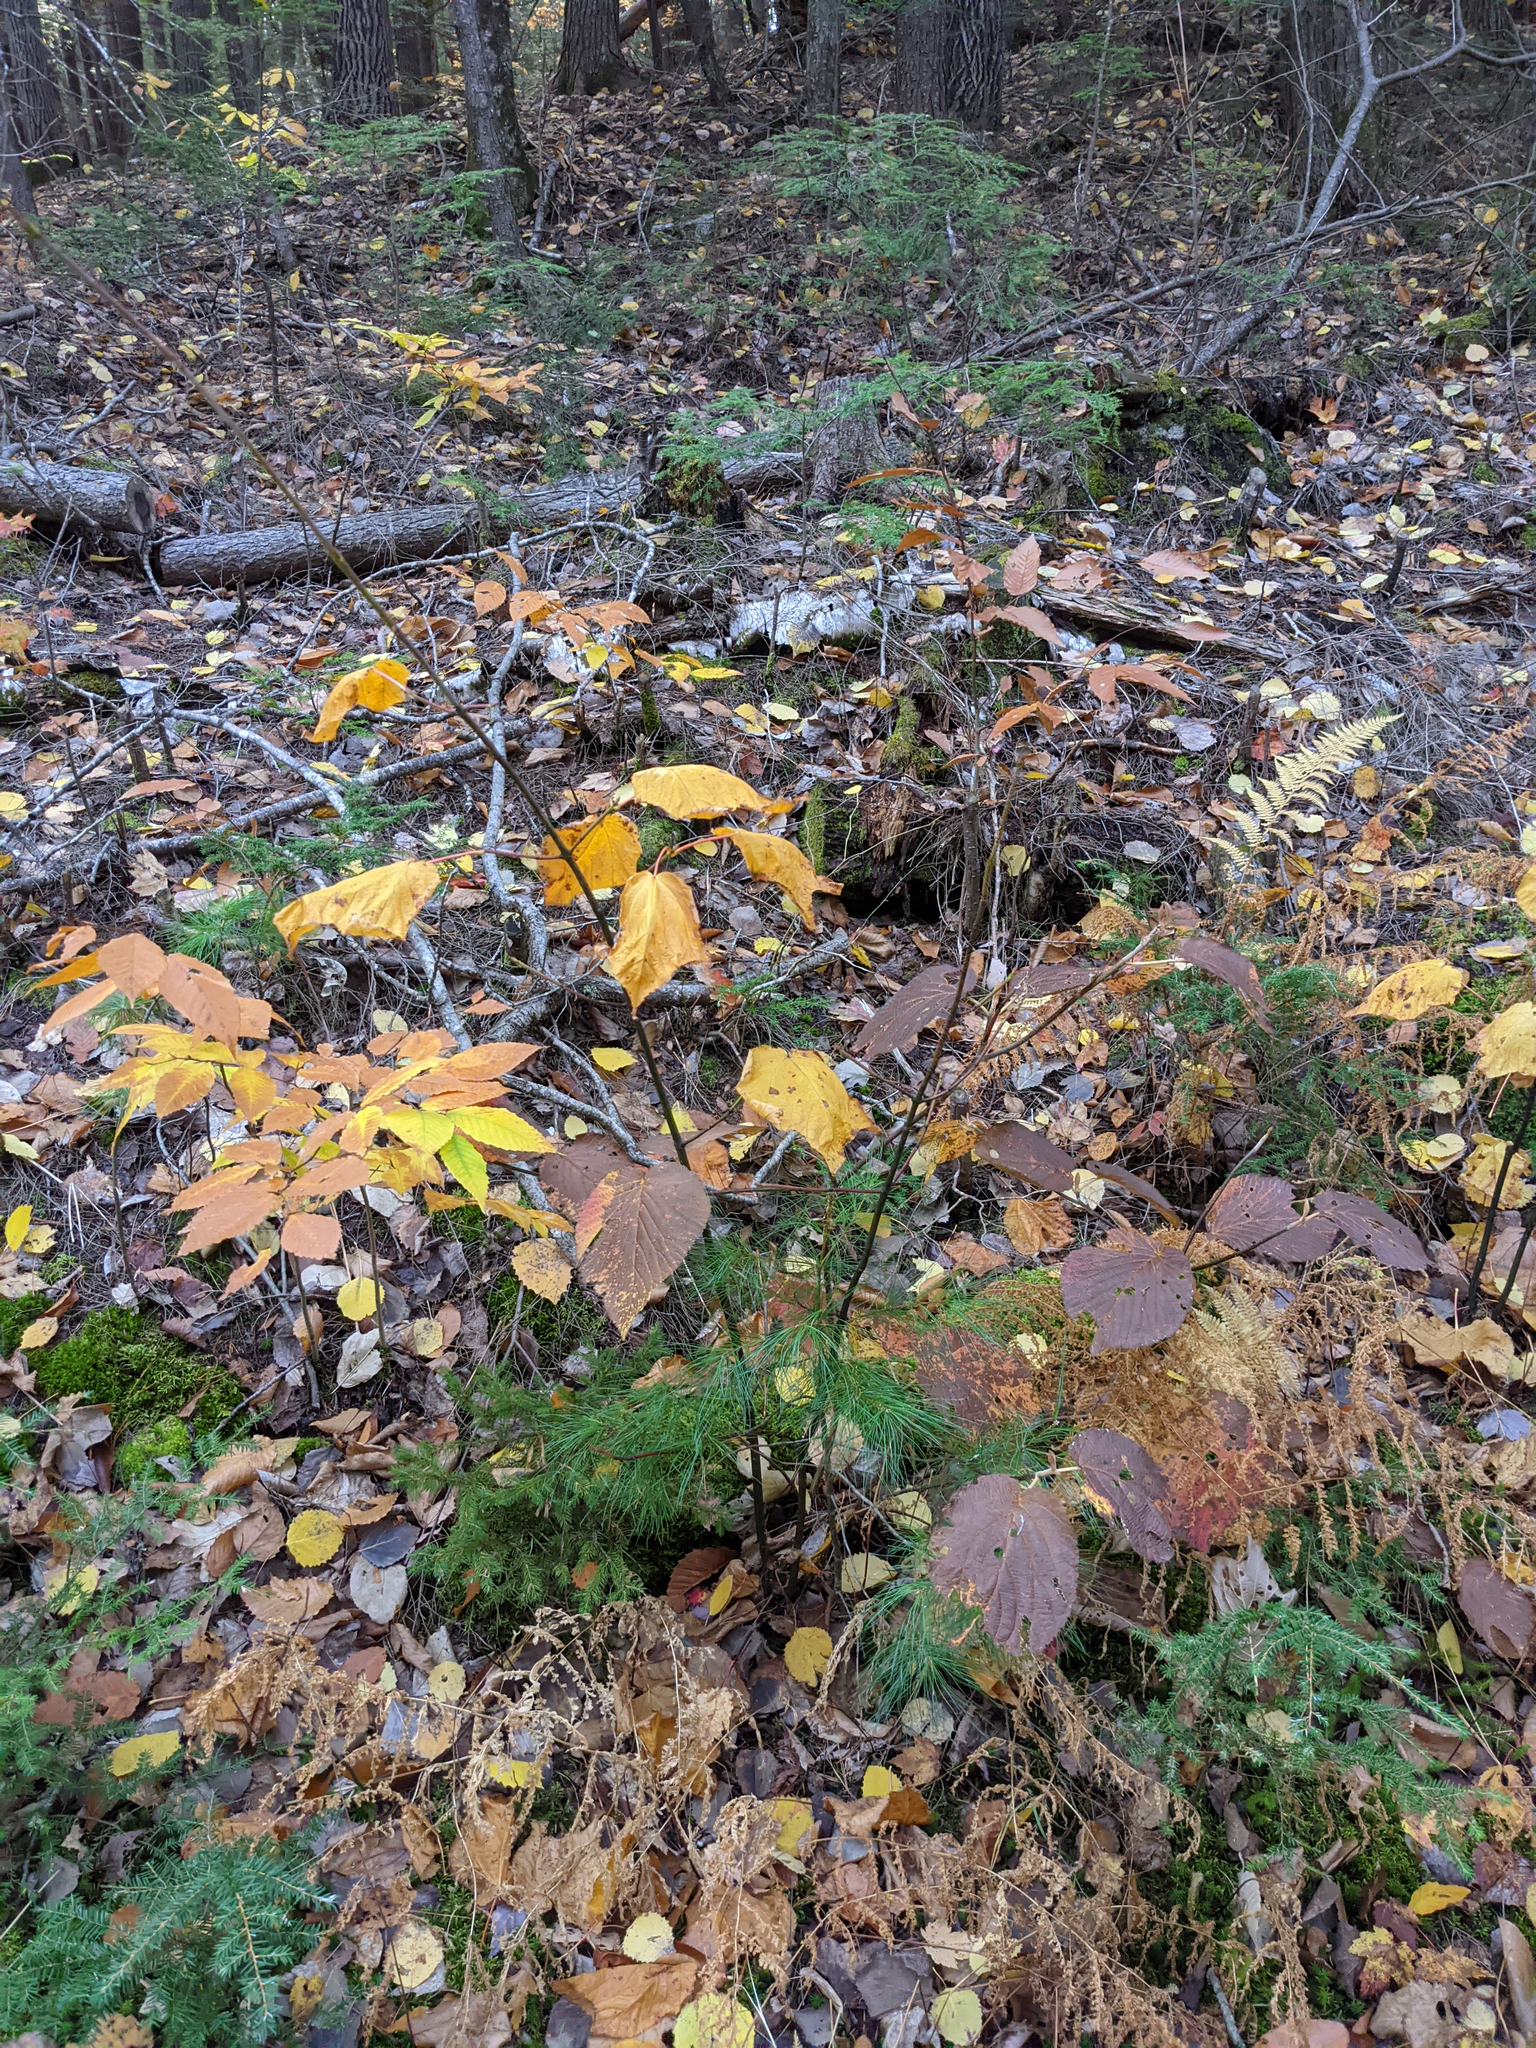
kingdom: Plantae
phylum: Tracheophyta
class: Magnoliopsida
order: Dipsacales
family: Viburnaceae
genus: Viburnum
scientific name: Viburnum lantanoides
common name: Hobblebush
